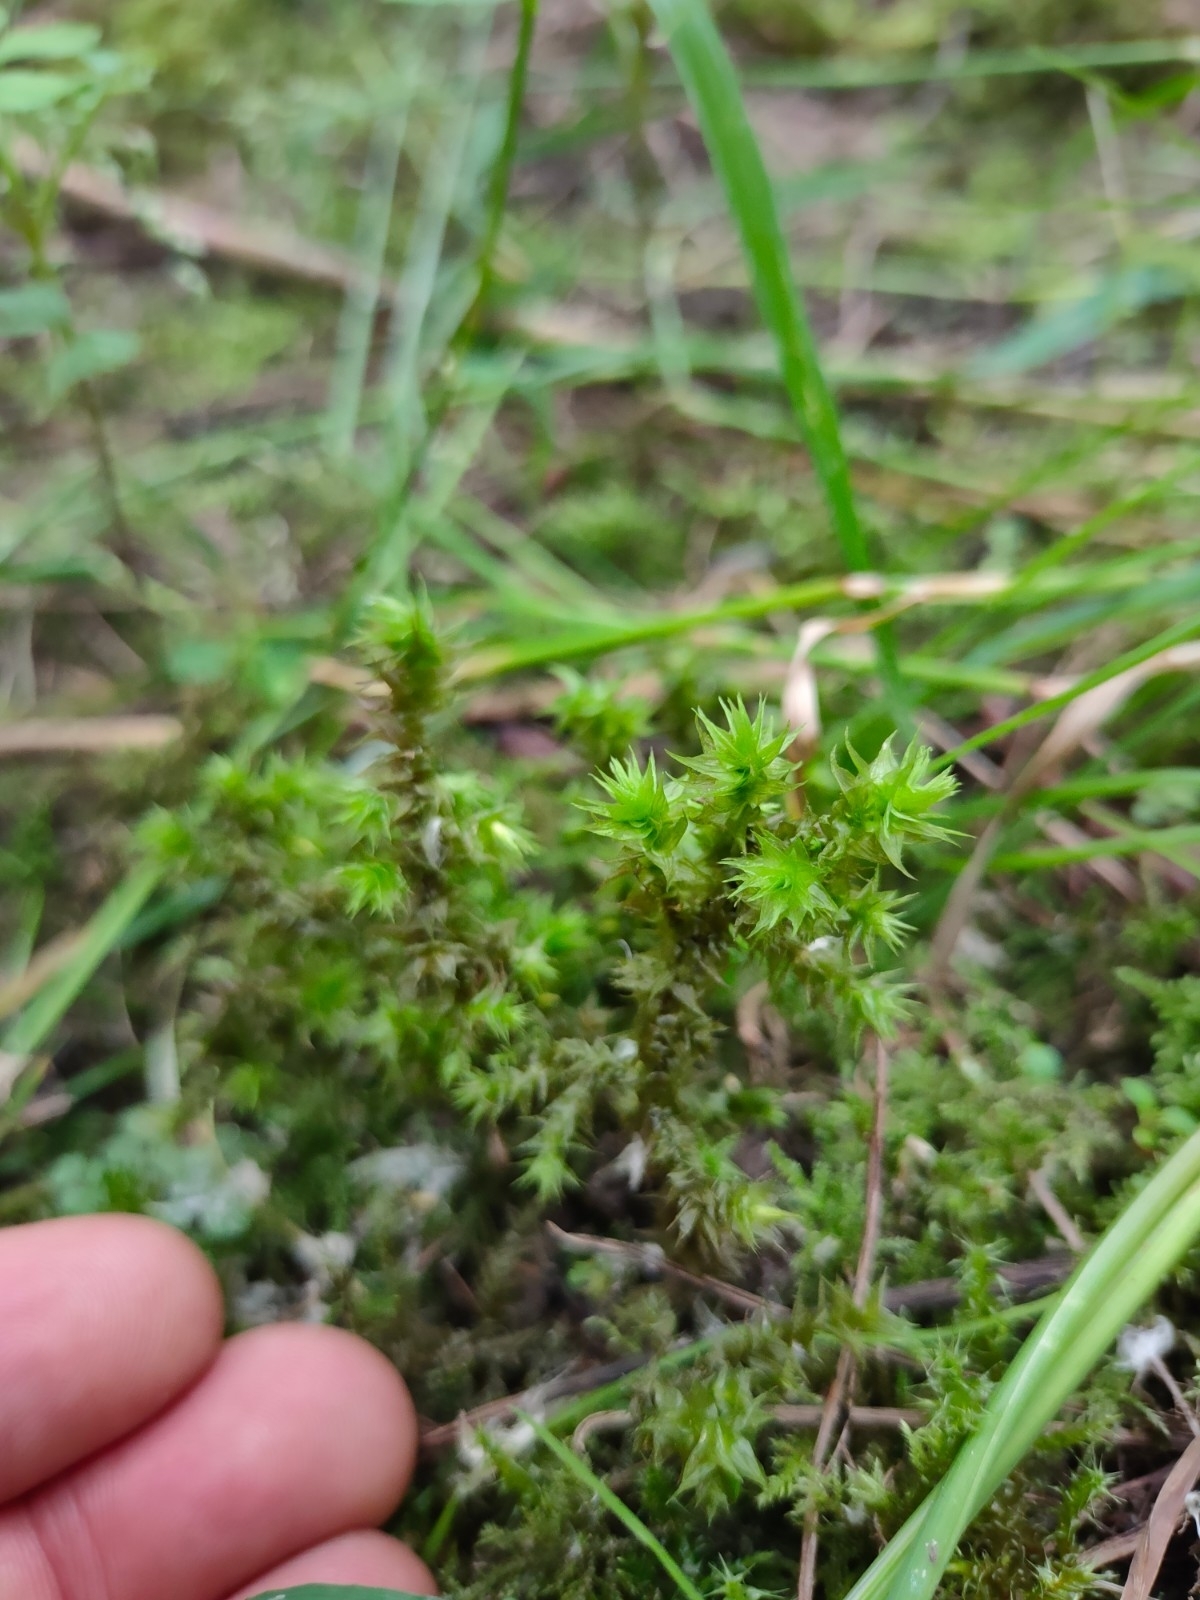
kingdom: Plantae
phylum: Bryophyta
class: Bryopsida
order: Hypnales
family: Hylocomiaceae
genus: Hylocomiadelphus
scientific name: Hylocomiadelphus triquetrus
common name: Rough goose neck moss
